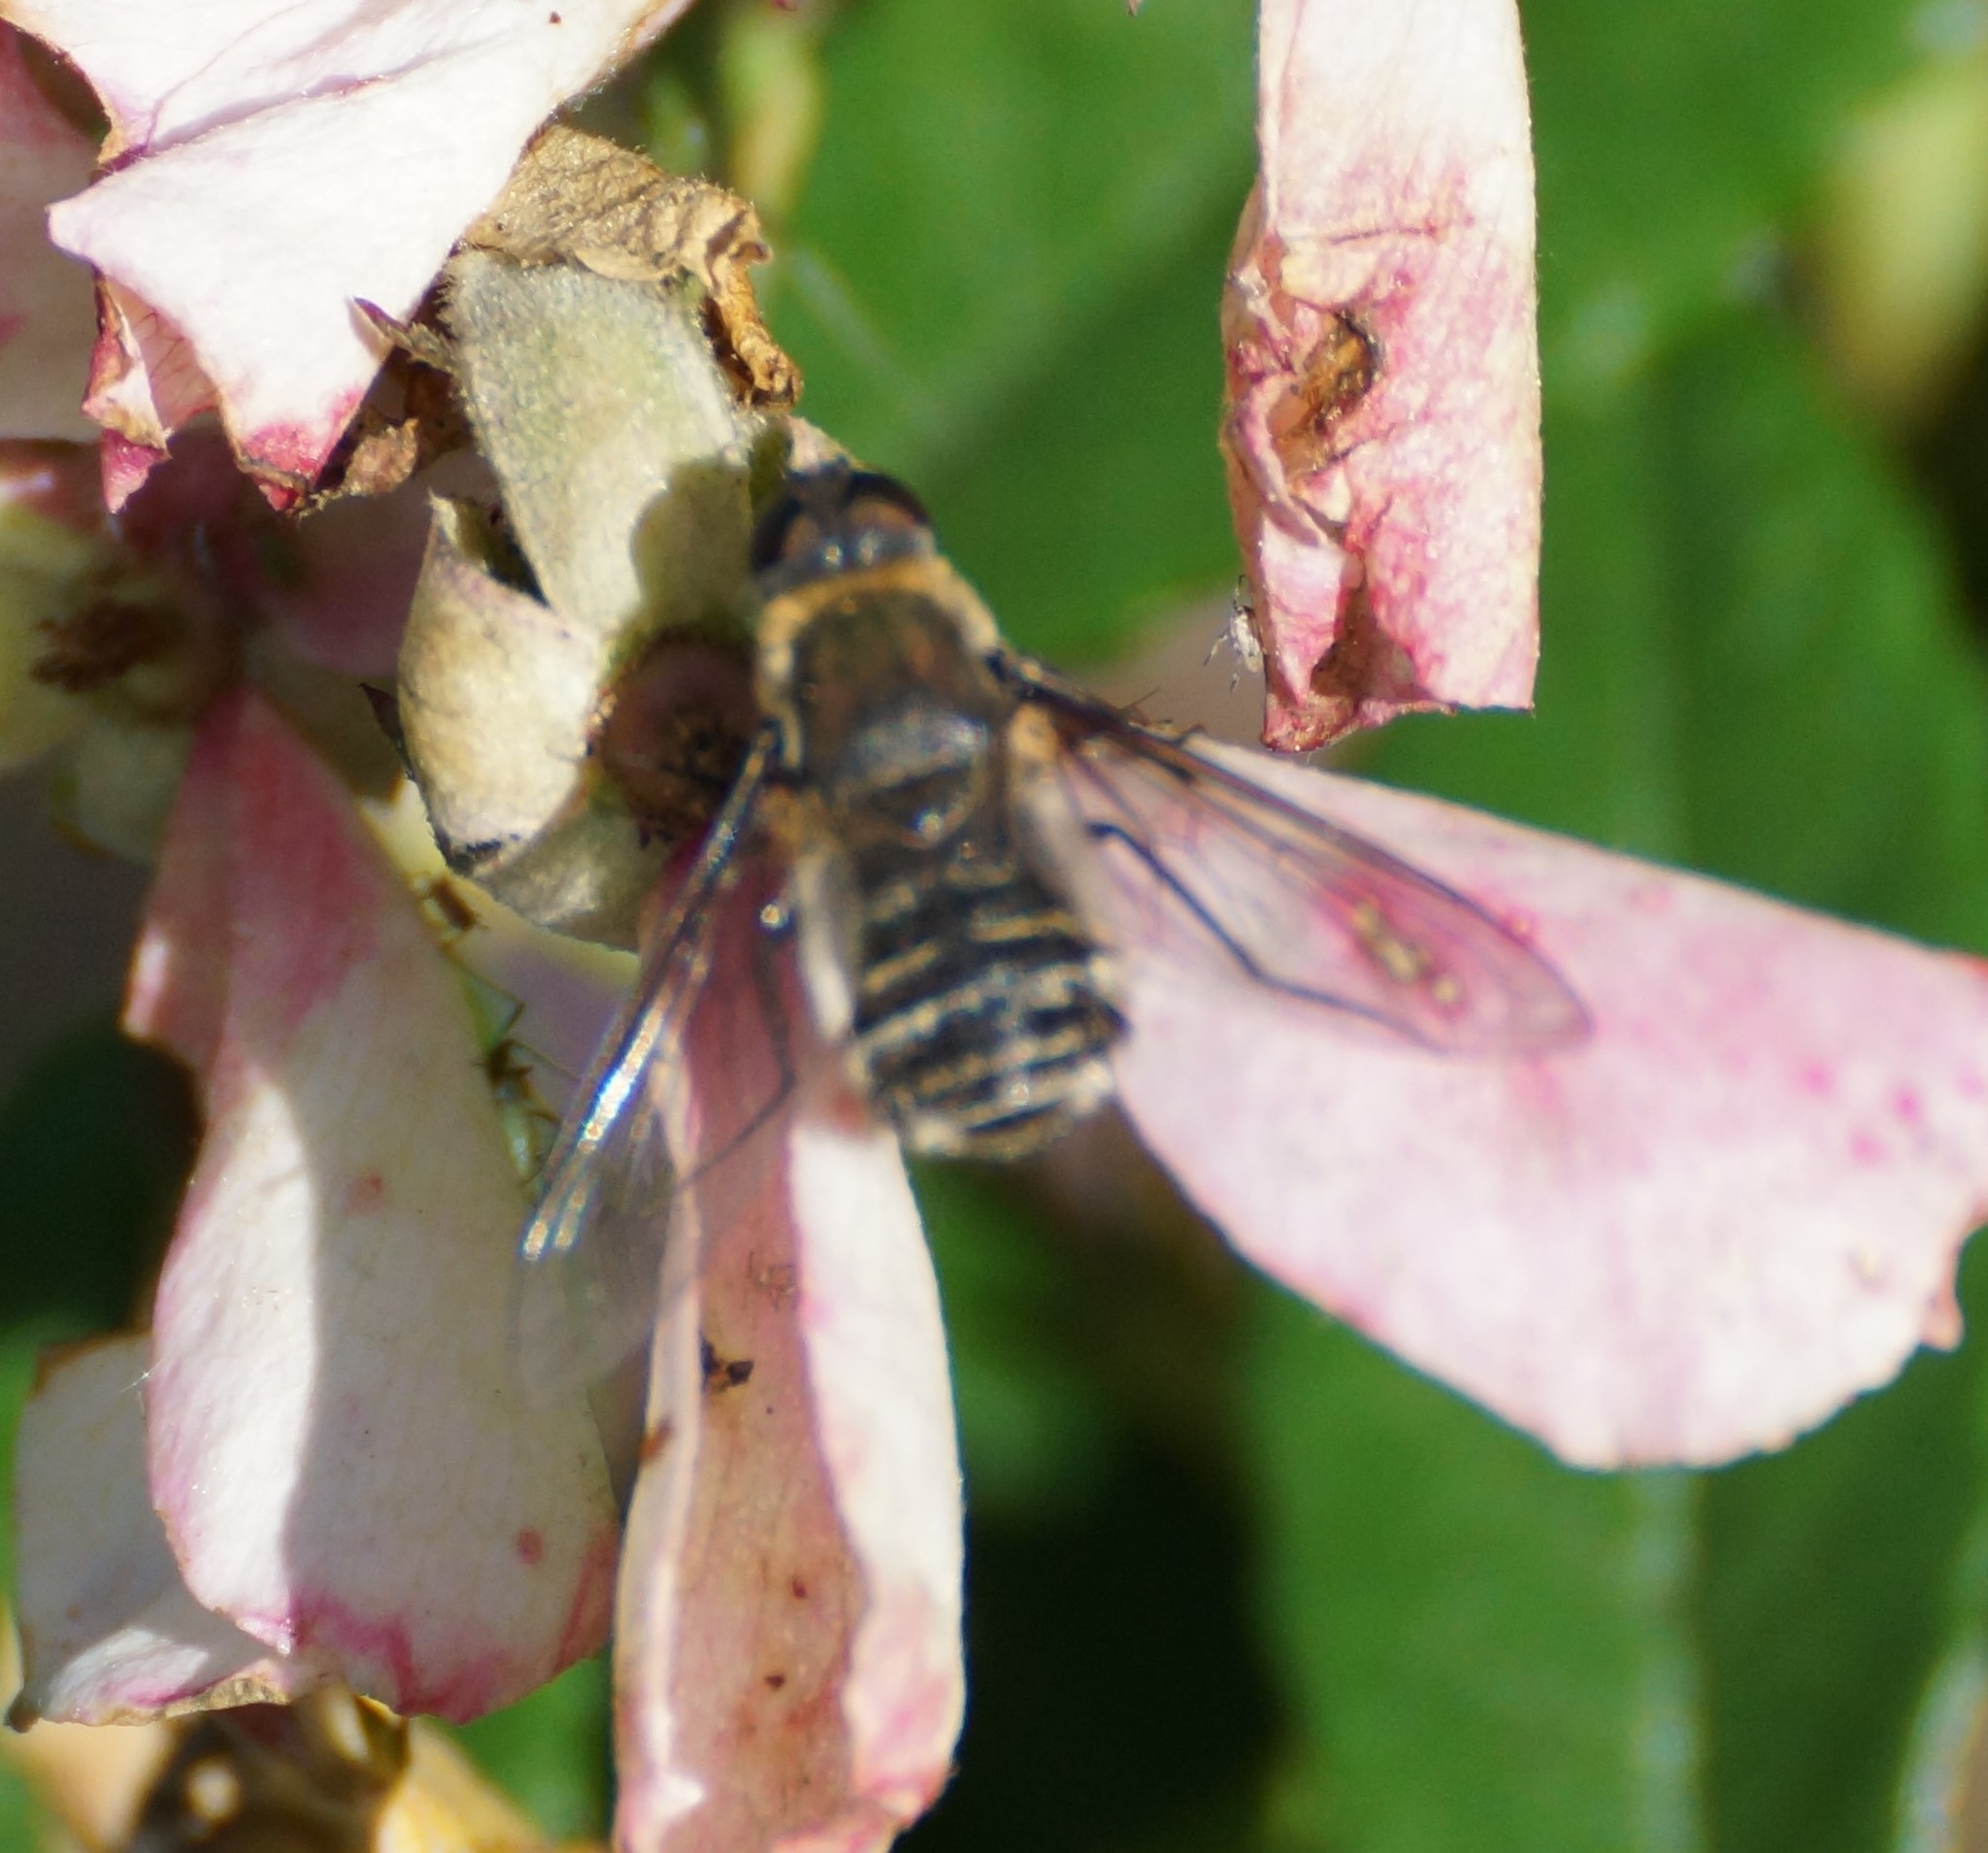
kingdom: Animalia
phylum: Arthropoda
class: Insecta
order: Diptera
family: Bombyliidae
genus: Villa
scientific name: Villa
